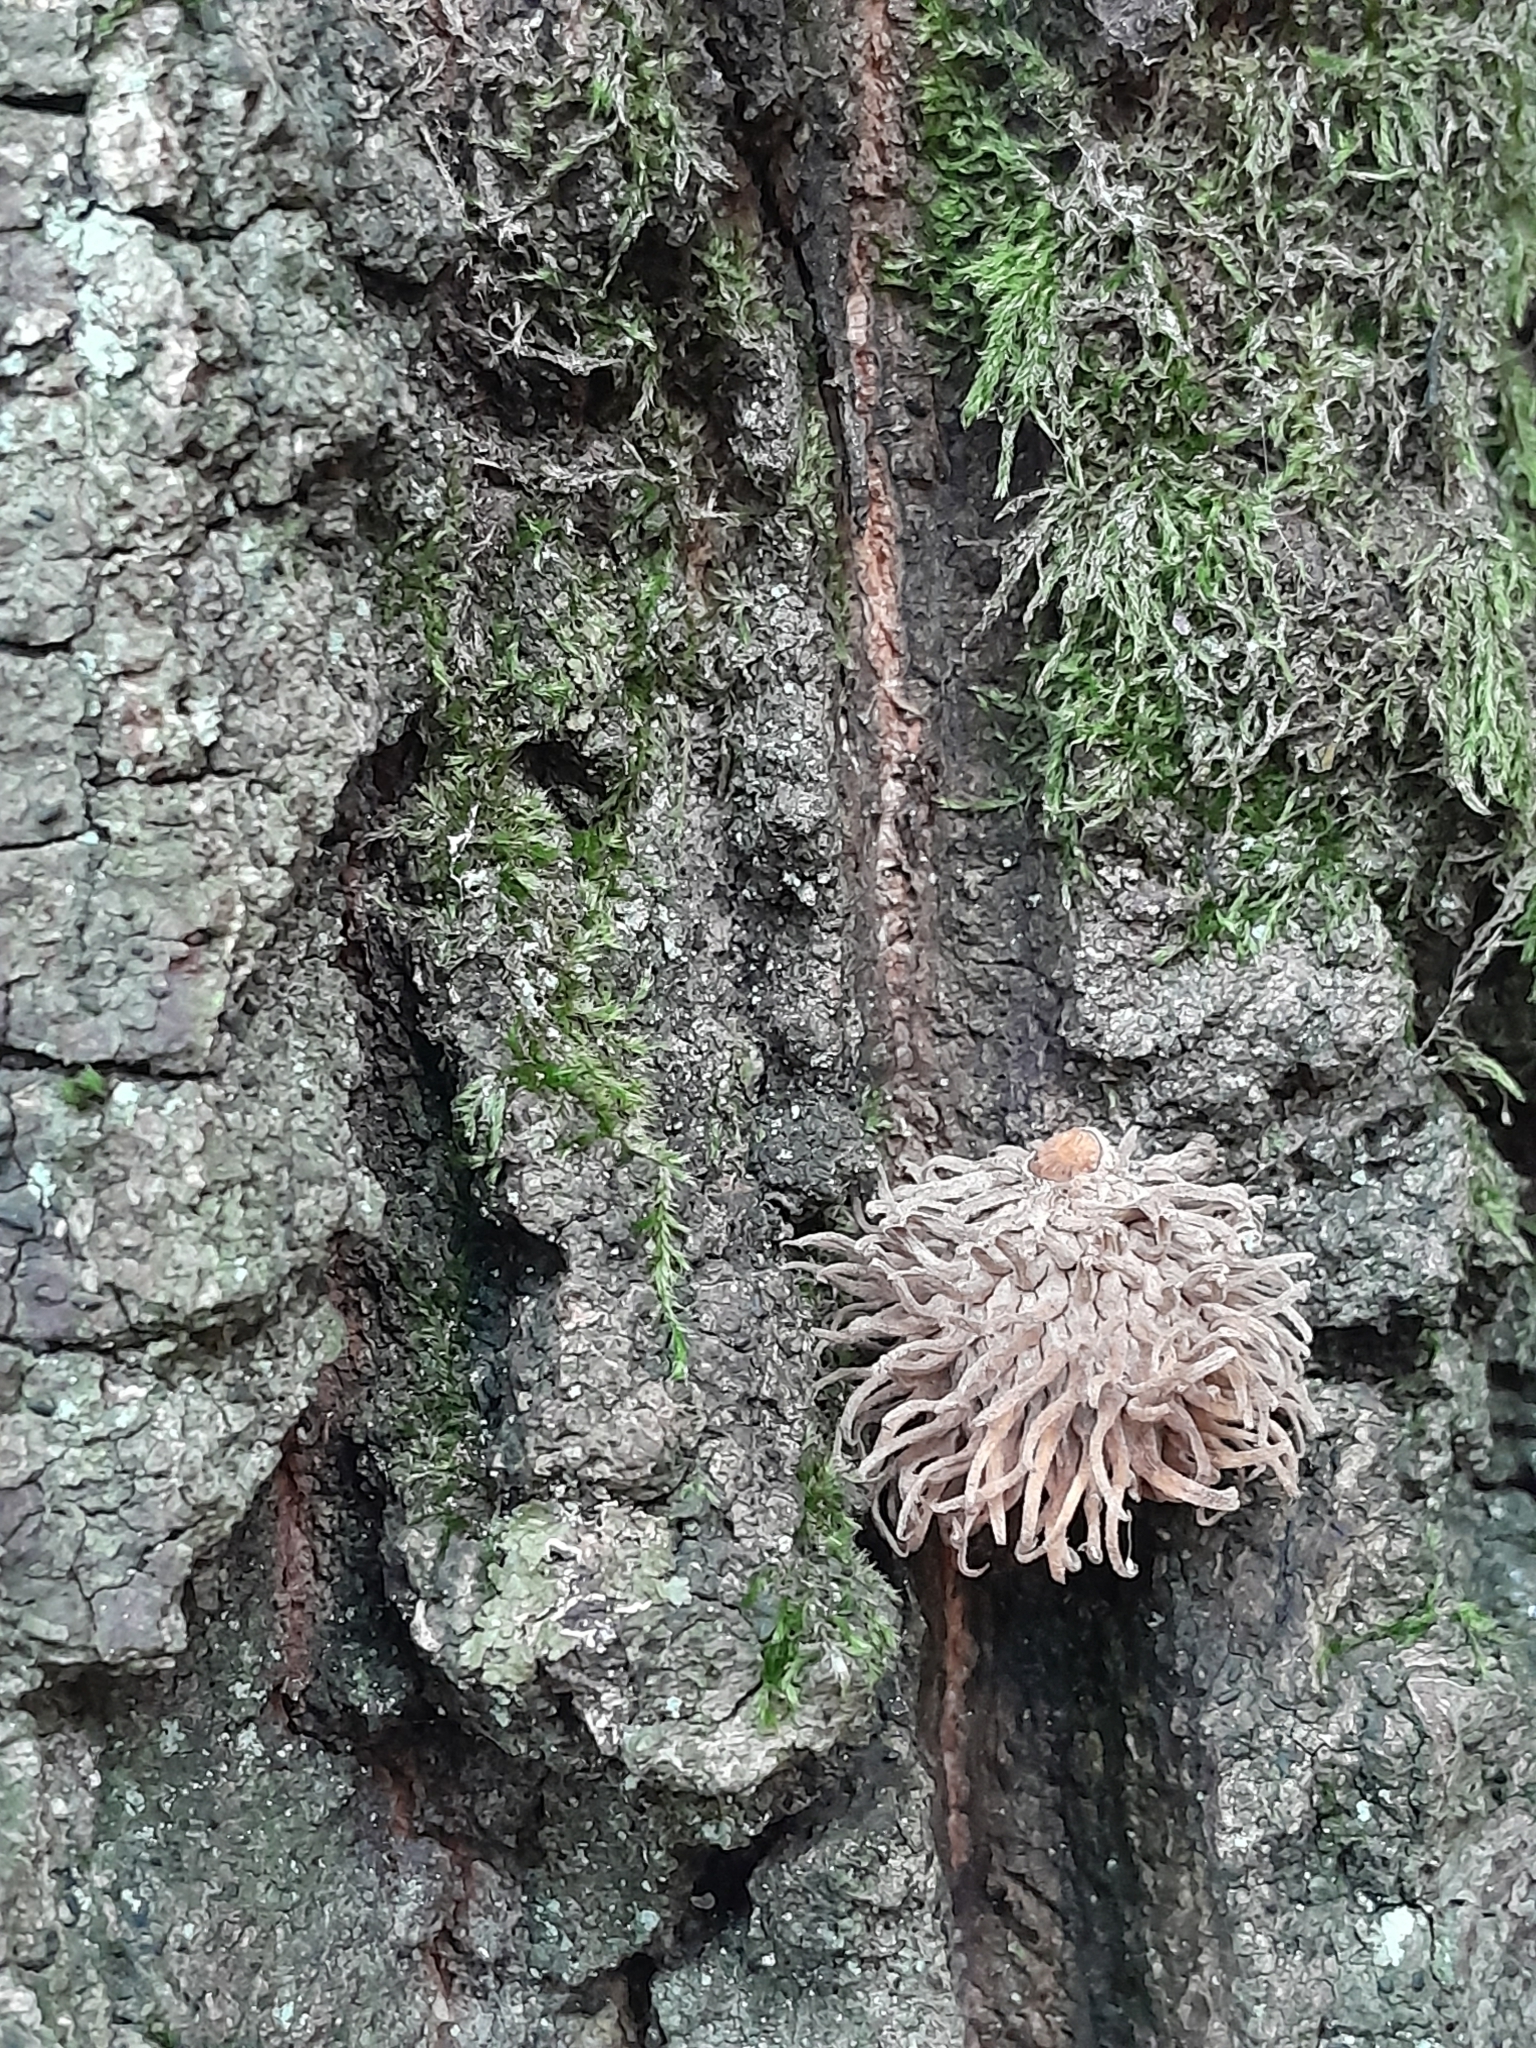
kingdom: Plantae
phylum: Tracheophyta
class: Magnoliopsida
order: Fagales
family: Fagaceae
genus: Quercus
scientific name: Quercus cerris
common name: Turkey oak
